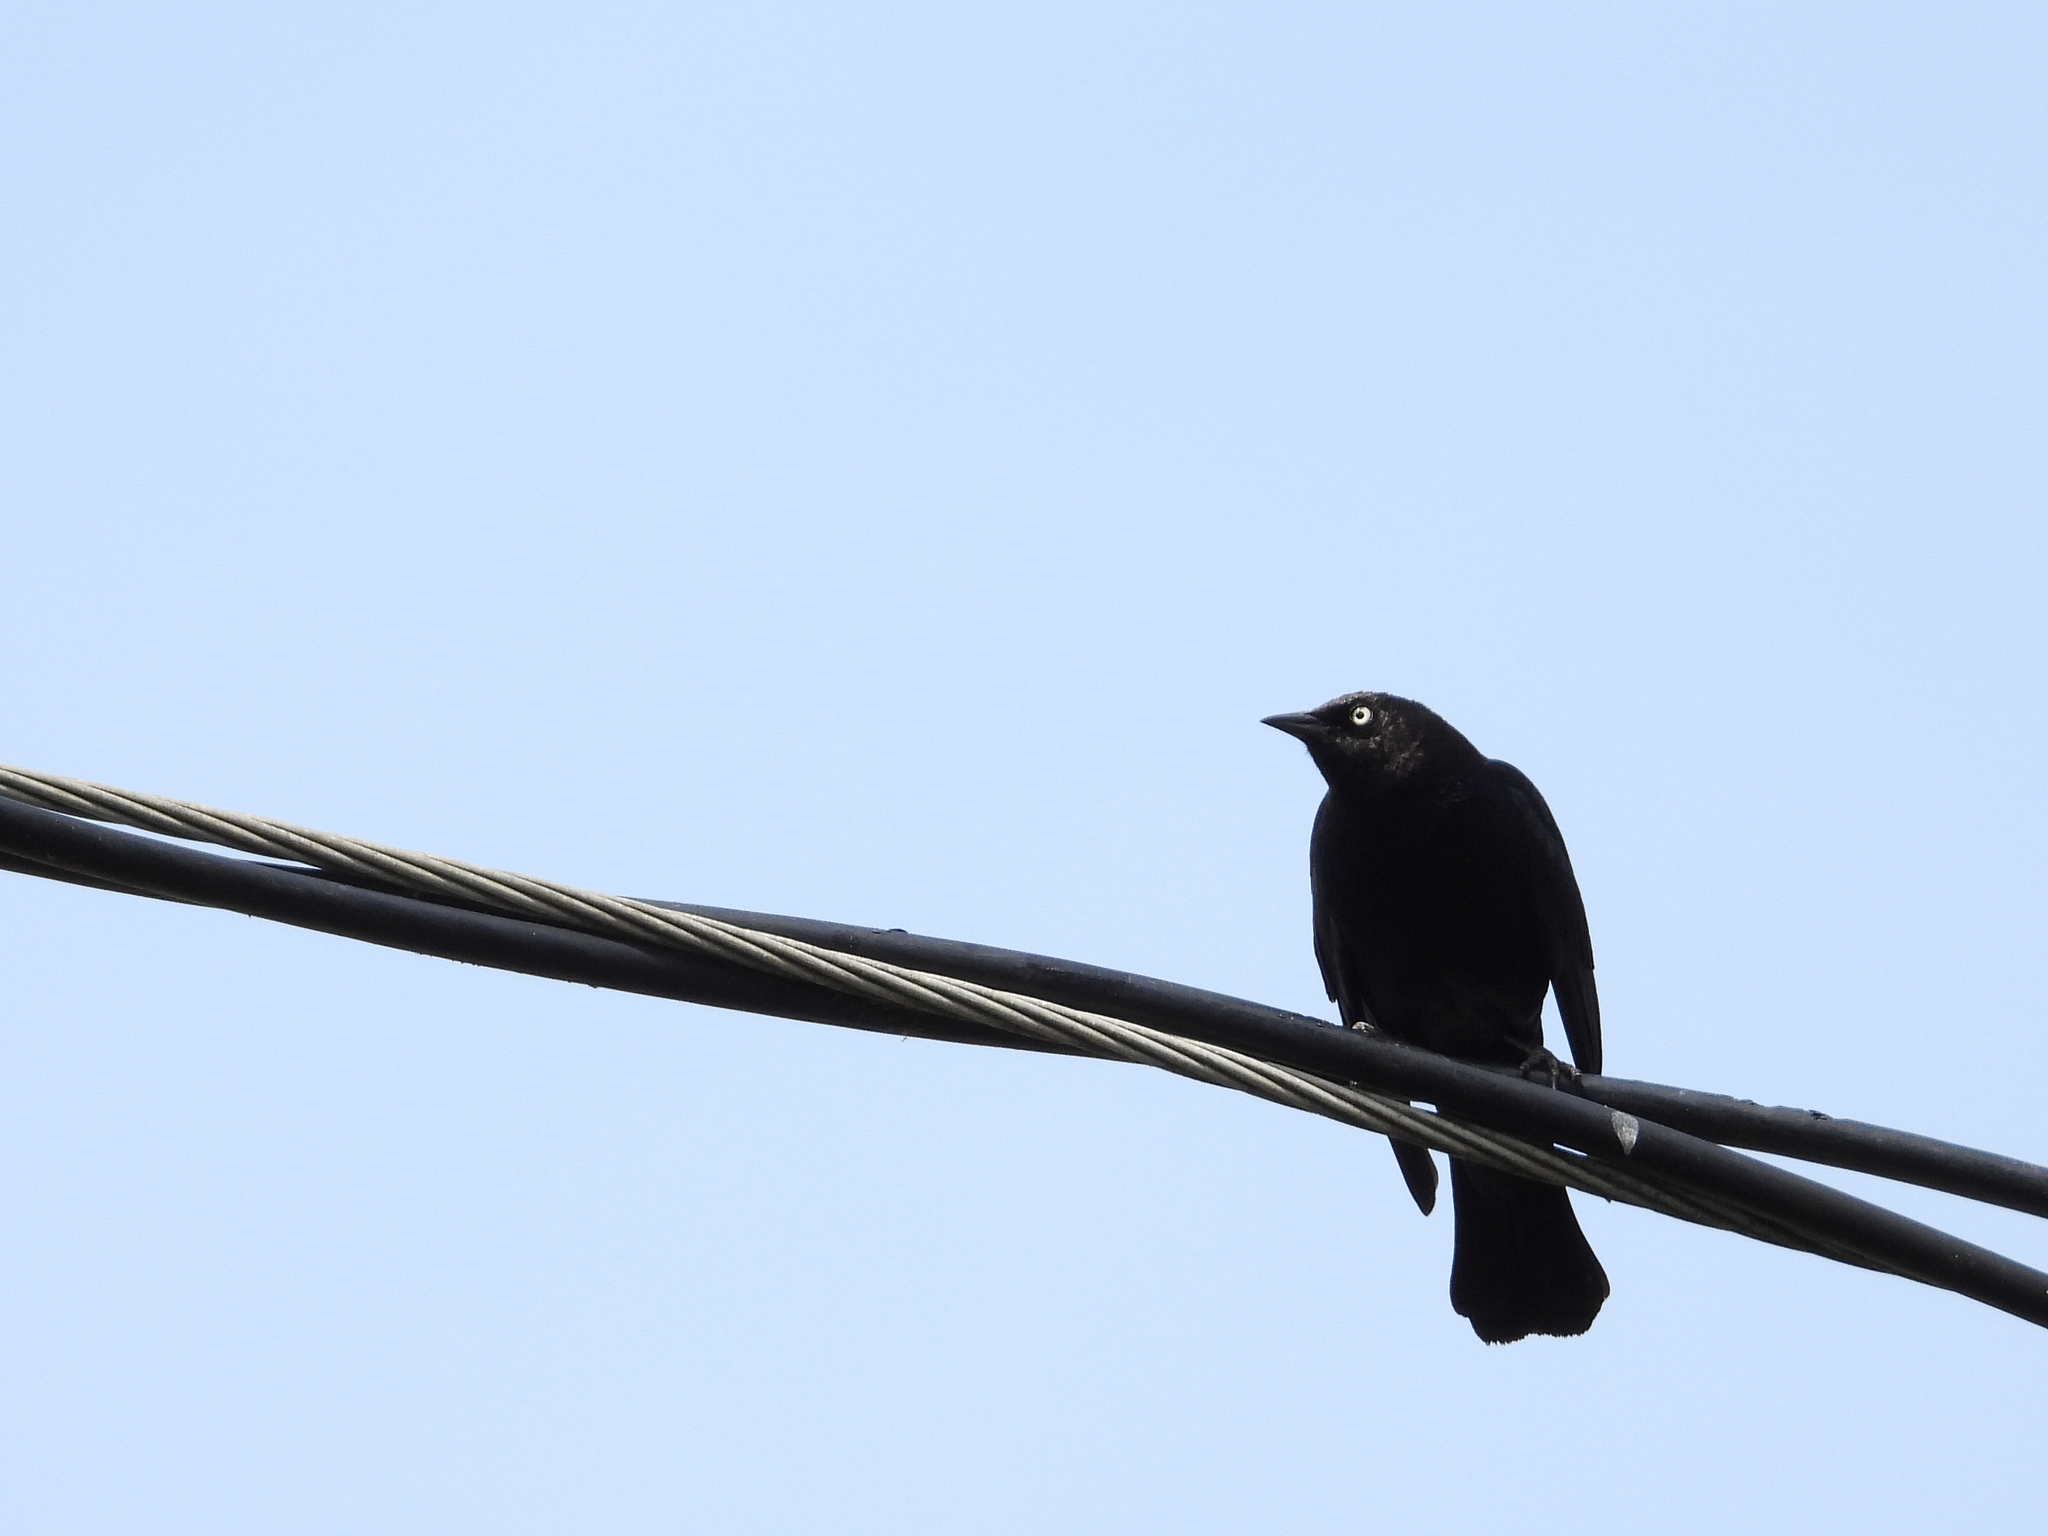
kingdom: Animalia
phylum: Chordata
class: Aves
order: Passeriformes
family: Icteridae
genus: Euphagus
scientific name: Euphagus cyanocephalus
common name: Brewer's blackbird
